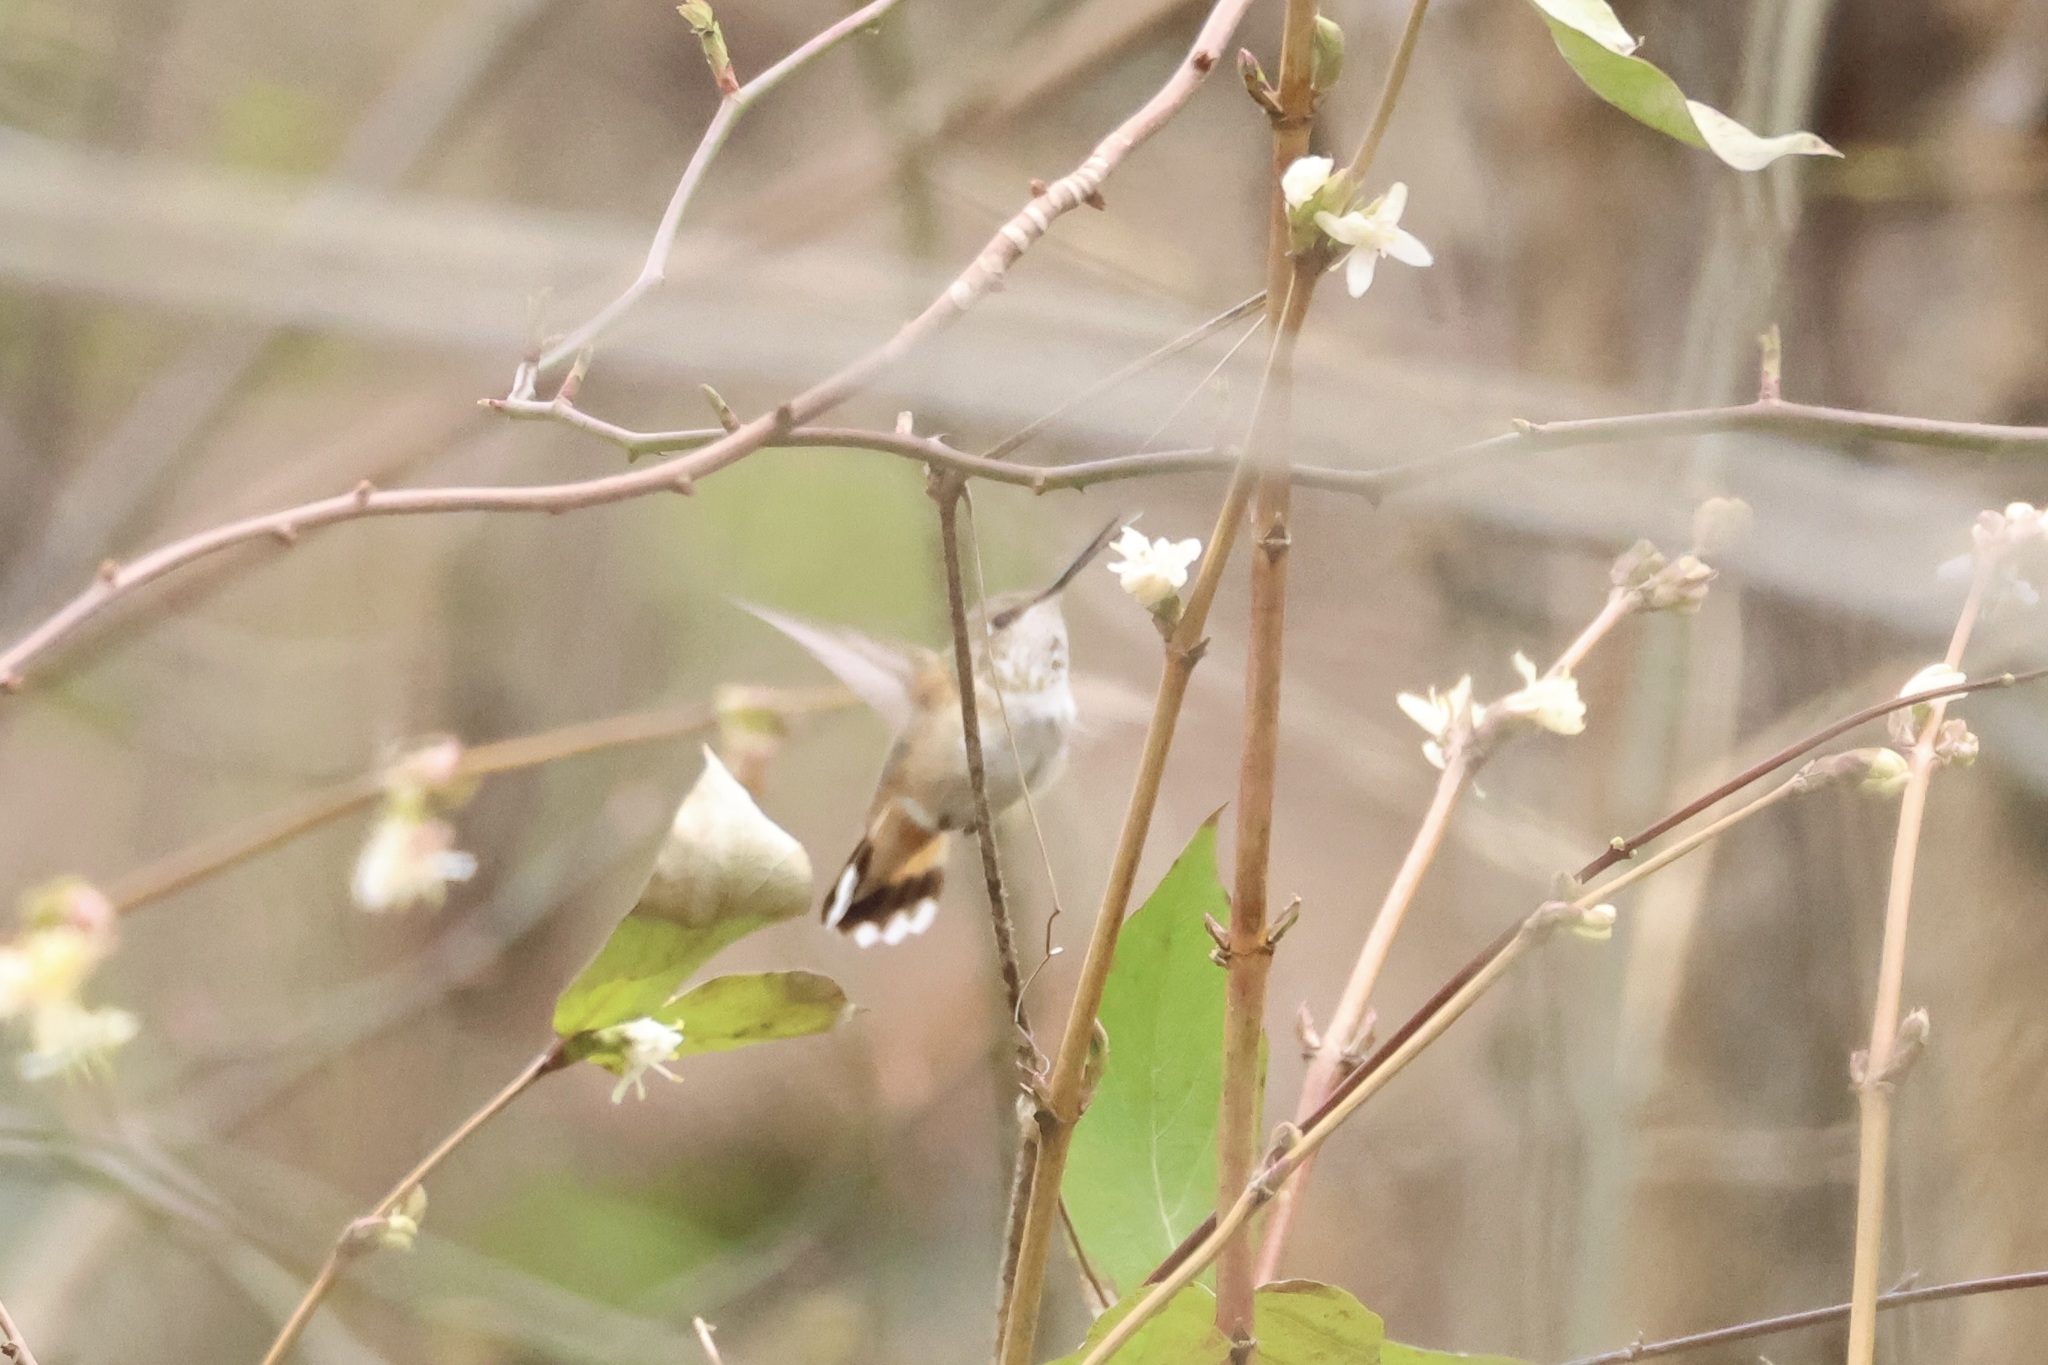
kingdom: Animalia
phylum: Chordata
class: Aves
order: Apodiformes
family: Trochilidae
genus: Selasphorus
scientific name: Selasphorus rufus
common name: Rufous hummingbird
